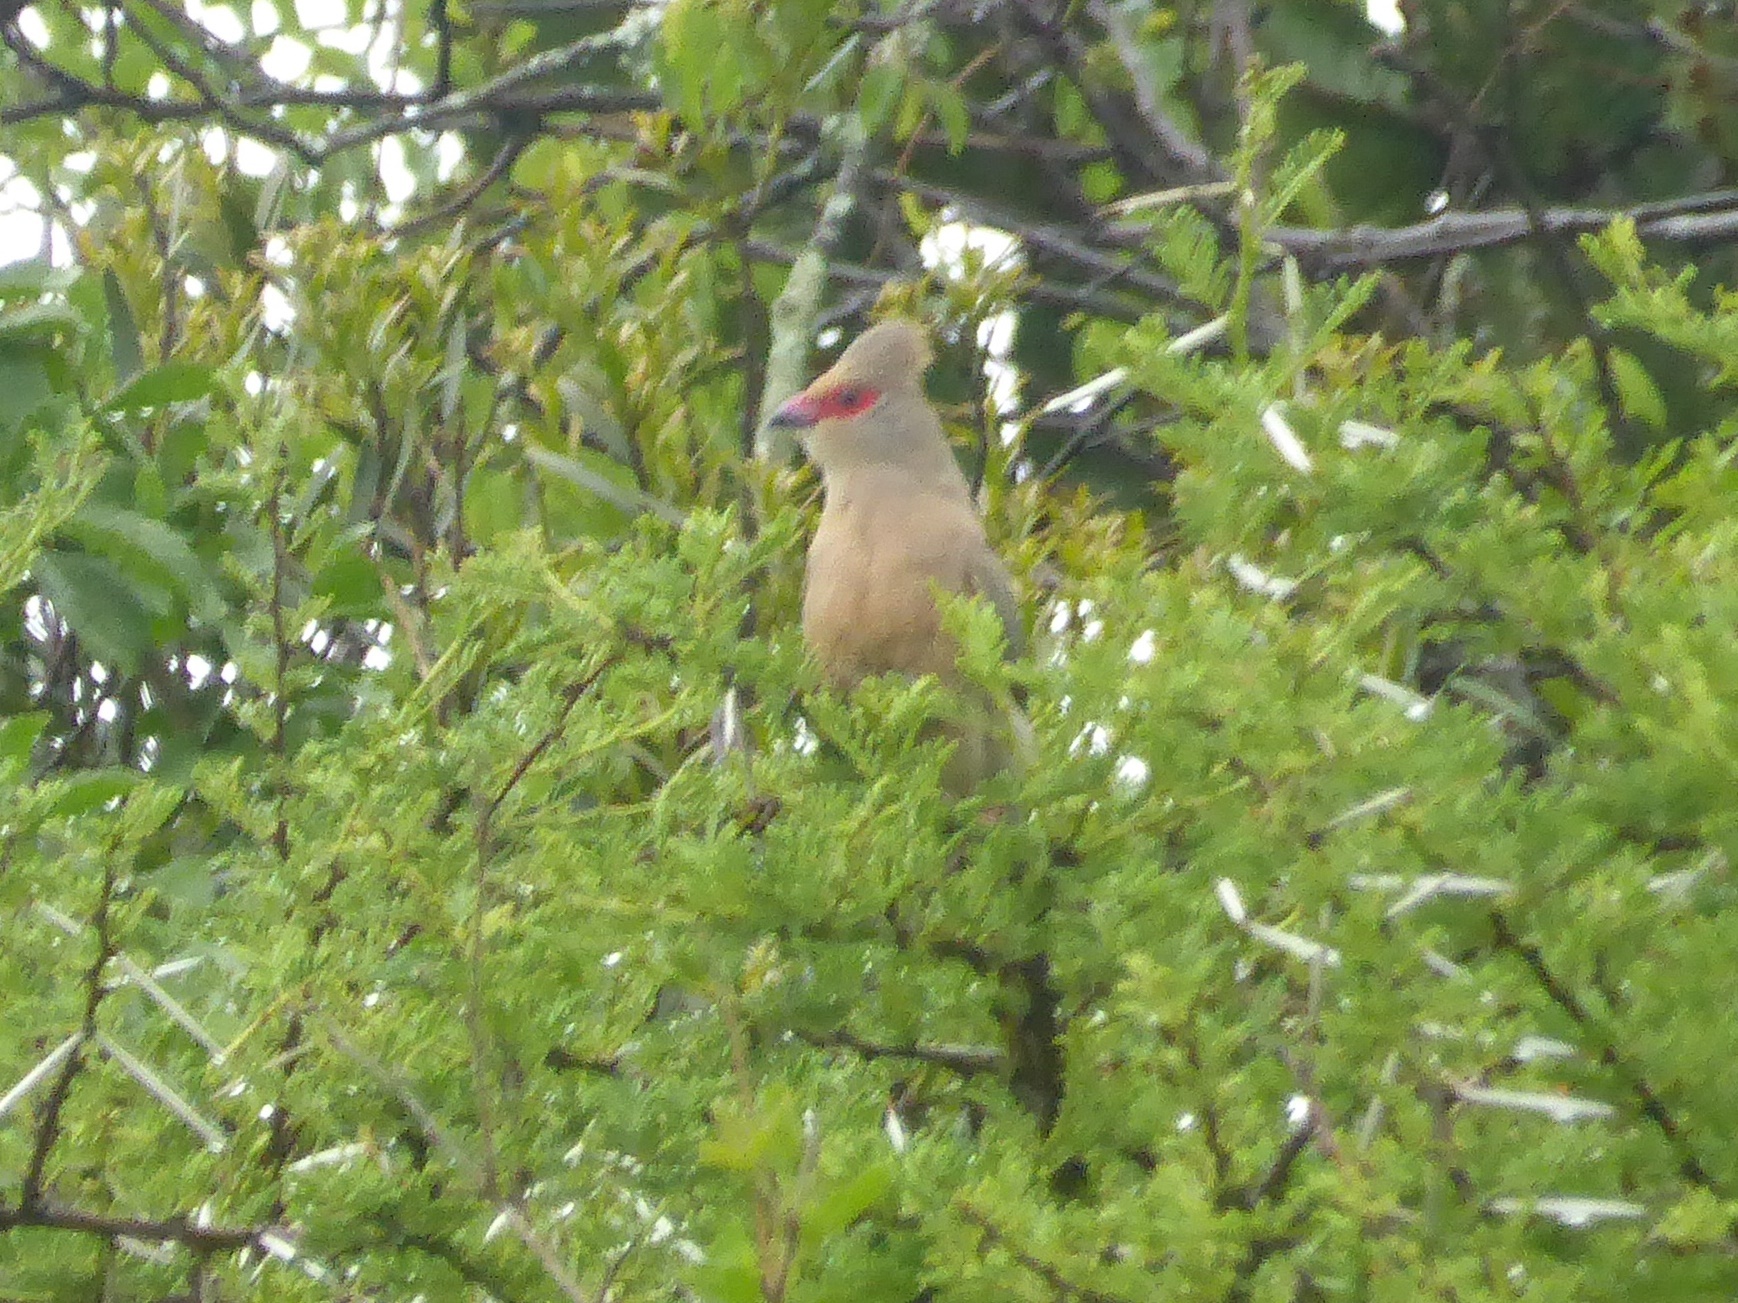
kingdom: Animalia
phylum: Chordata
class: Aves
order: Coliiformes
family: Coliidae
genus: Urocolius
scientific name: Urocolius indicus
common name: Red-faced mousebird
